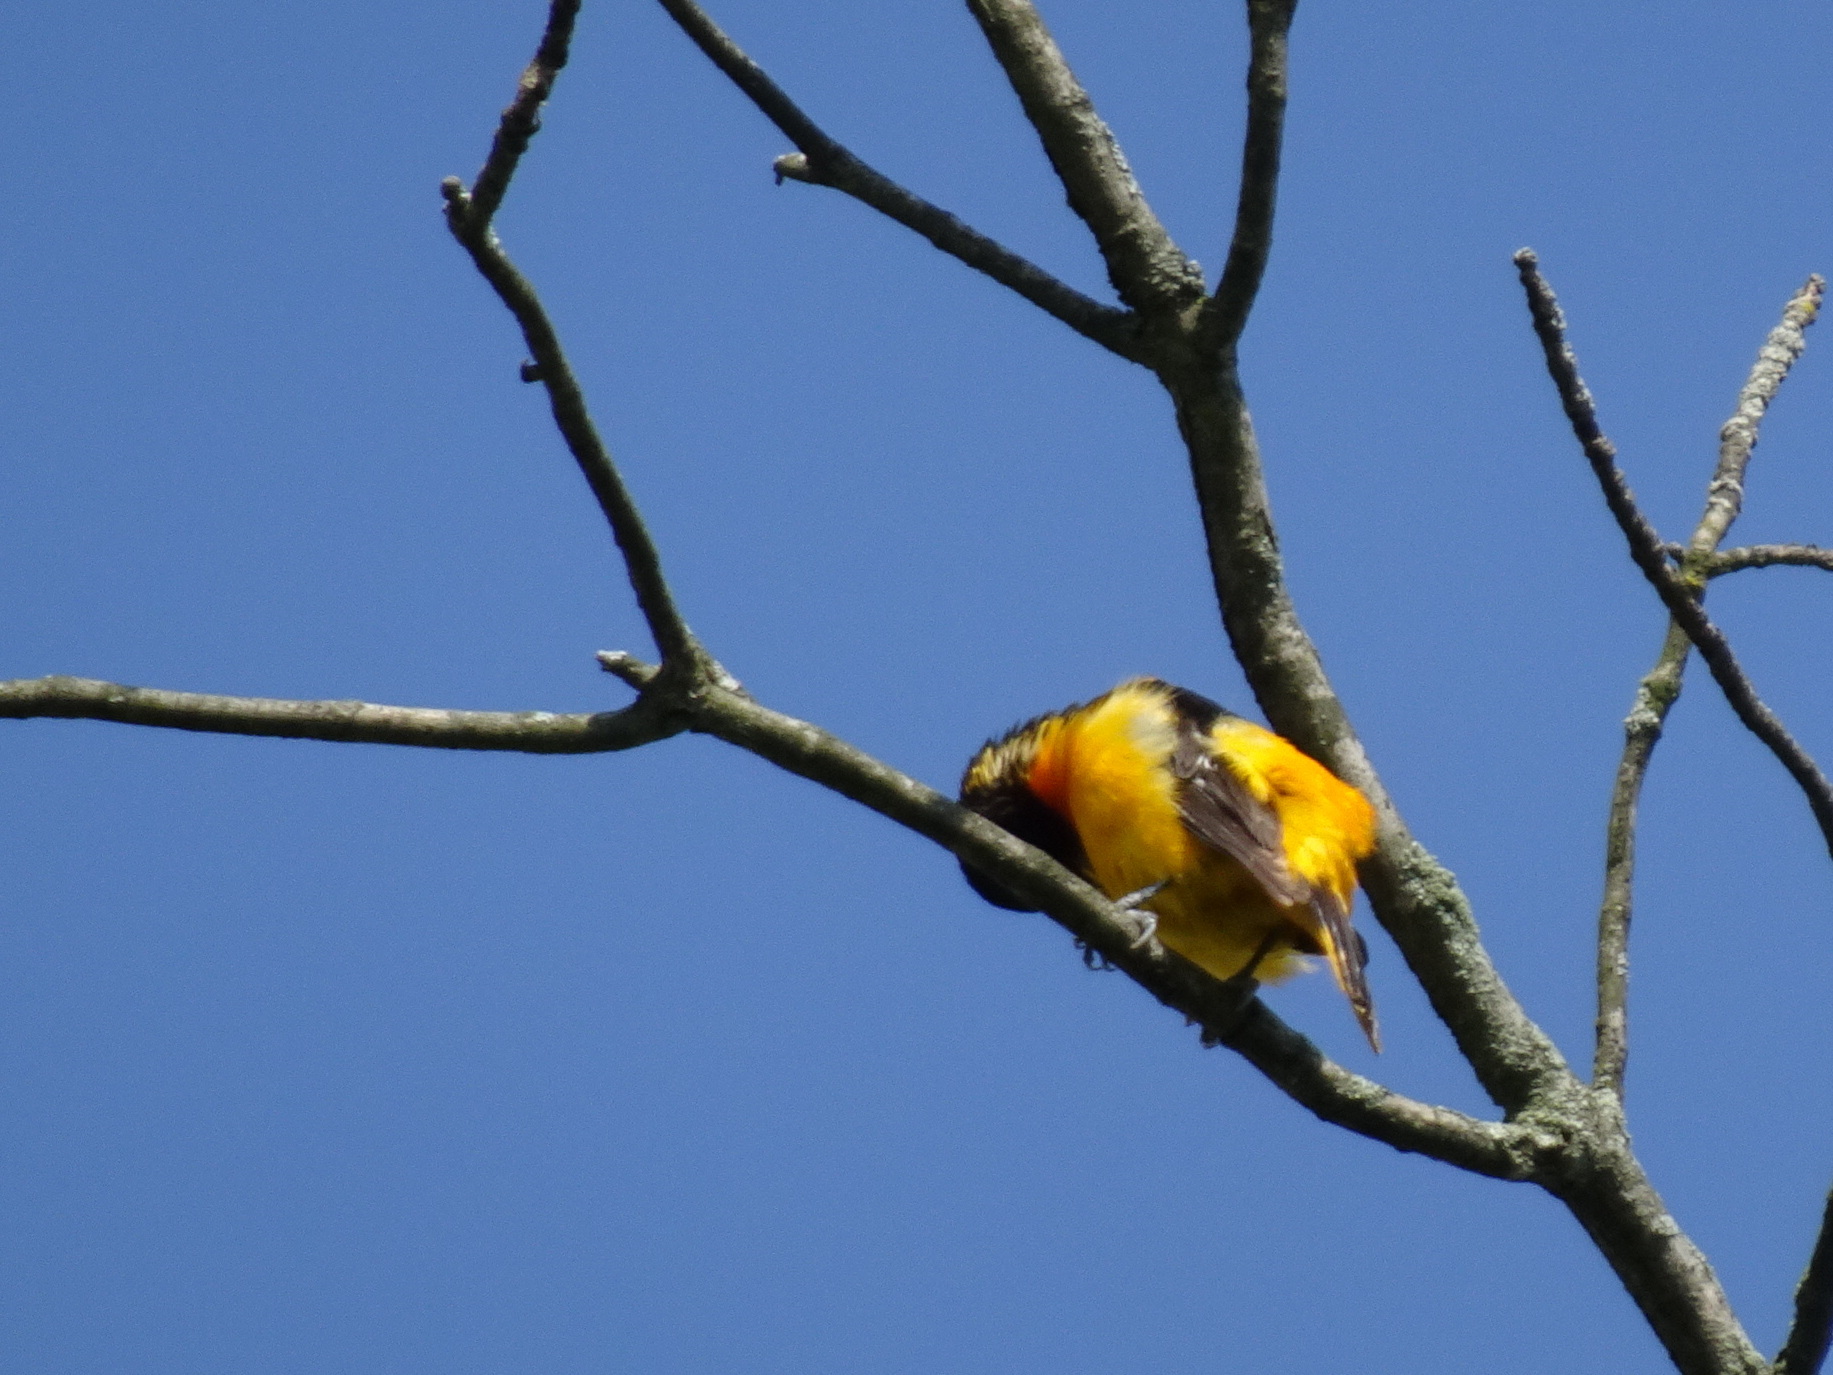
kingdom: Animalia
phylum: Chordata
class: Aves
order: Passeriformes
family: Icteridae
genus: Icterus
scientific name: Icterus galbula
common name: Baltimore oriole
